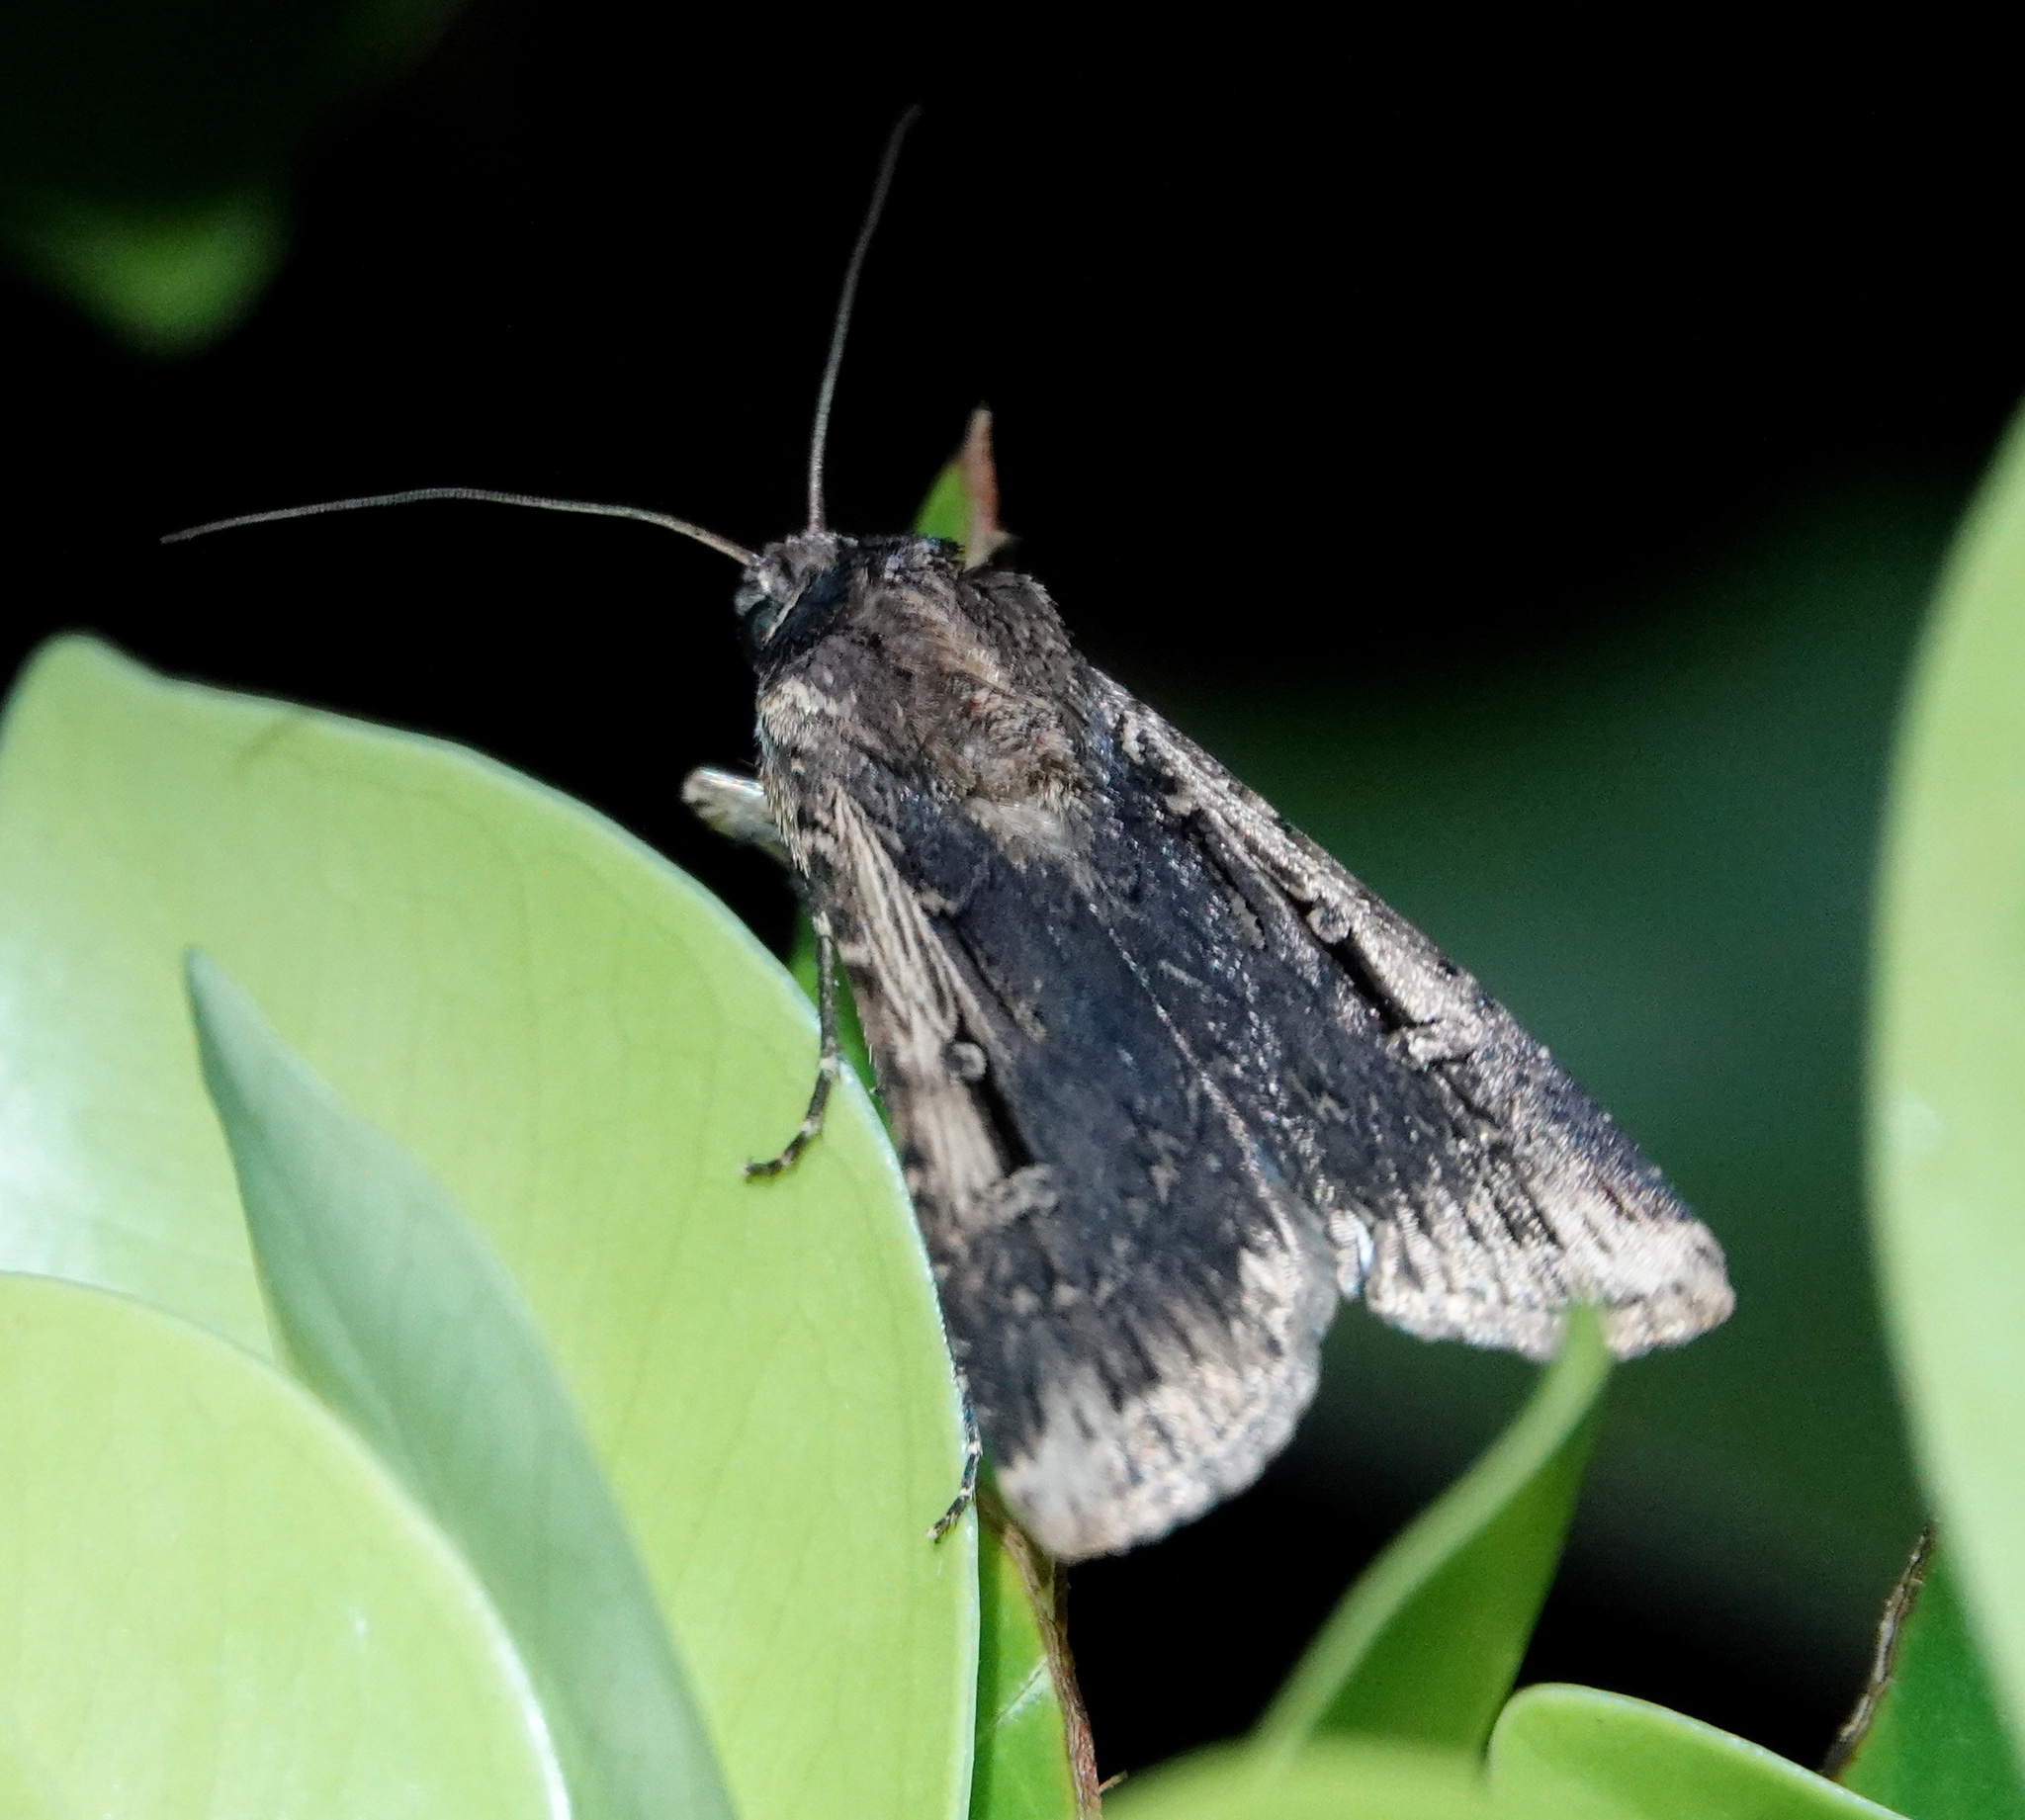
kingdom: Animalia
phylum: Arthropoda
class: Insecta
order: Lepidoptera
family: Noctuidae
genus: Feltia
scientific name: Feltia subterranea
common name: Granulate cutworm
